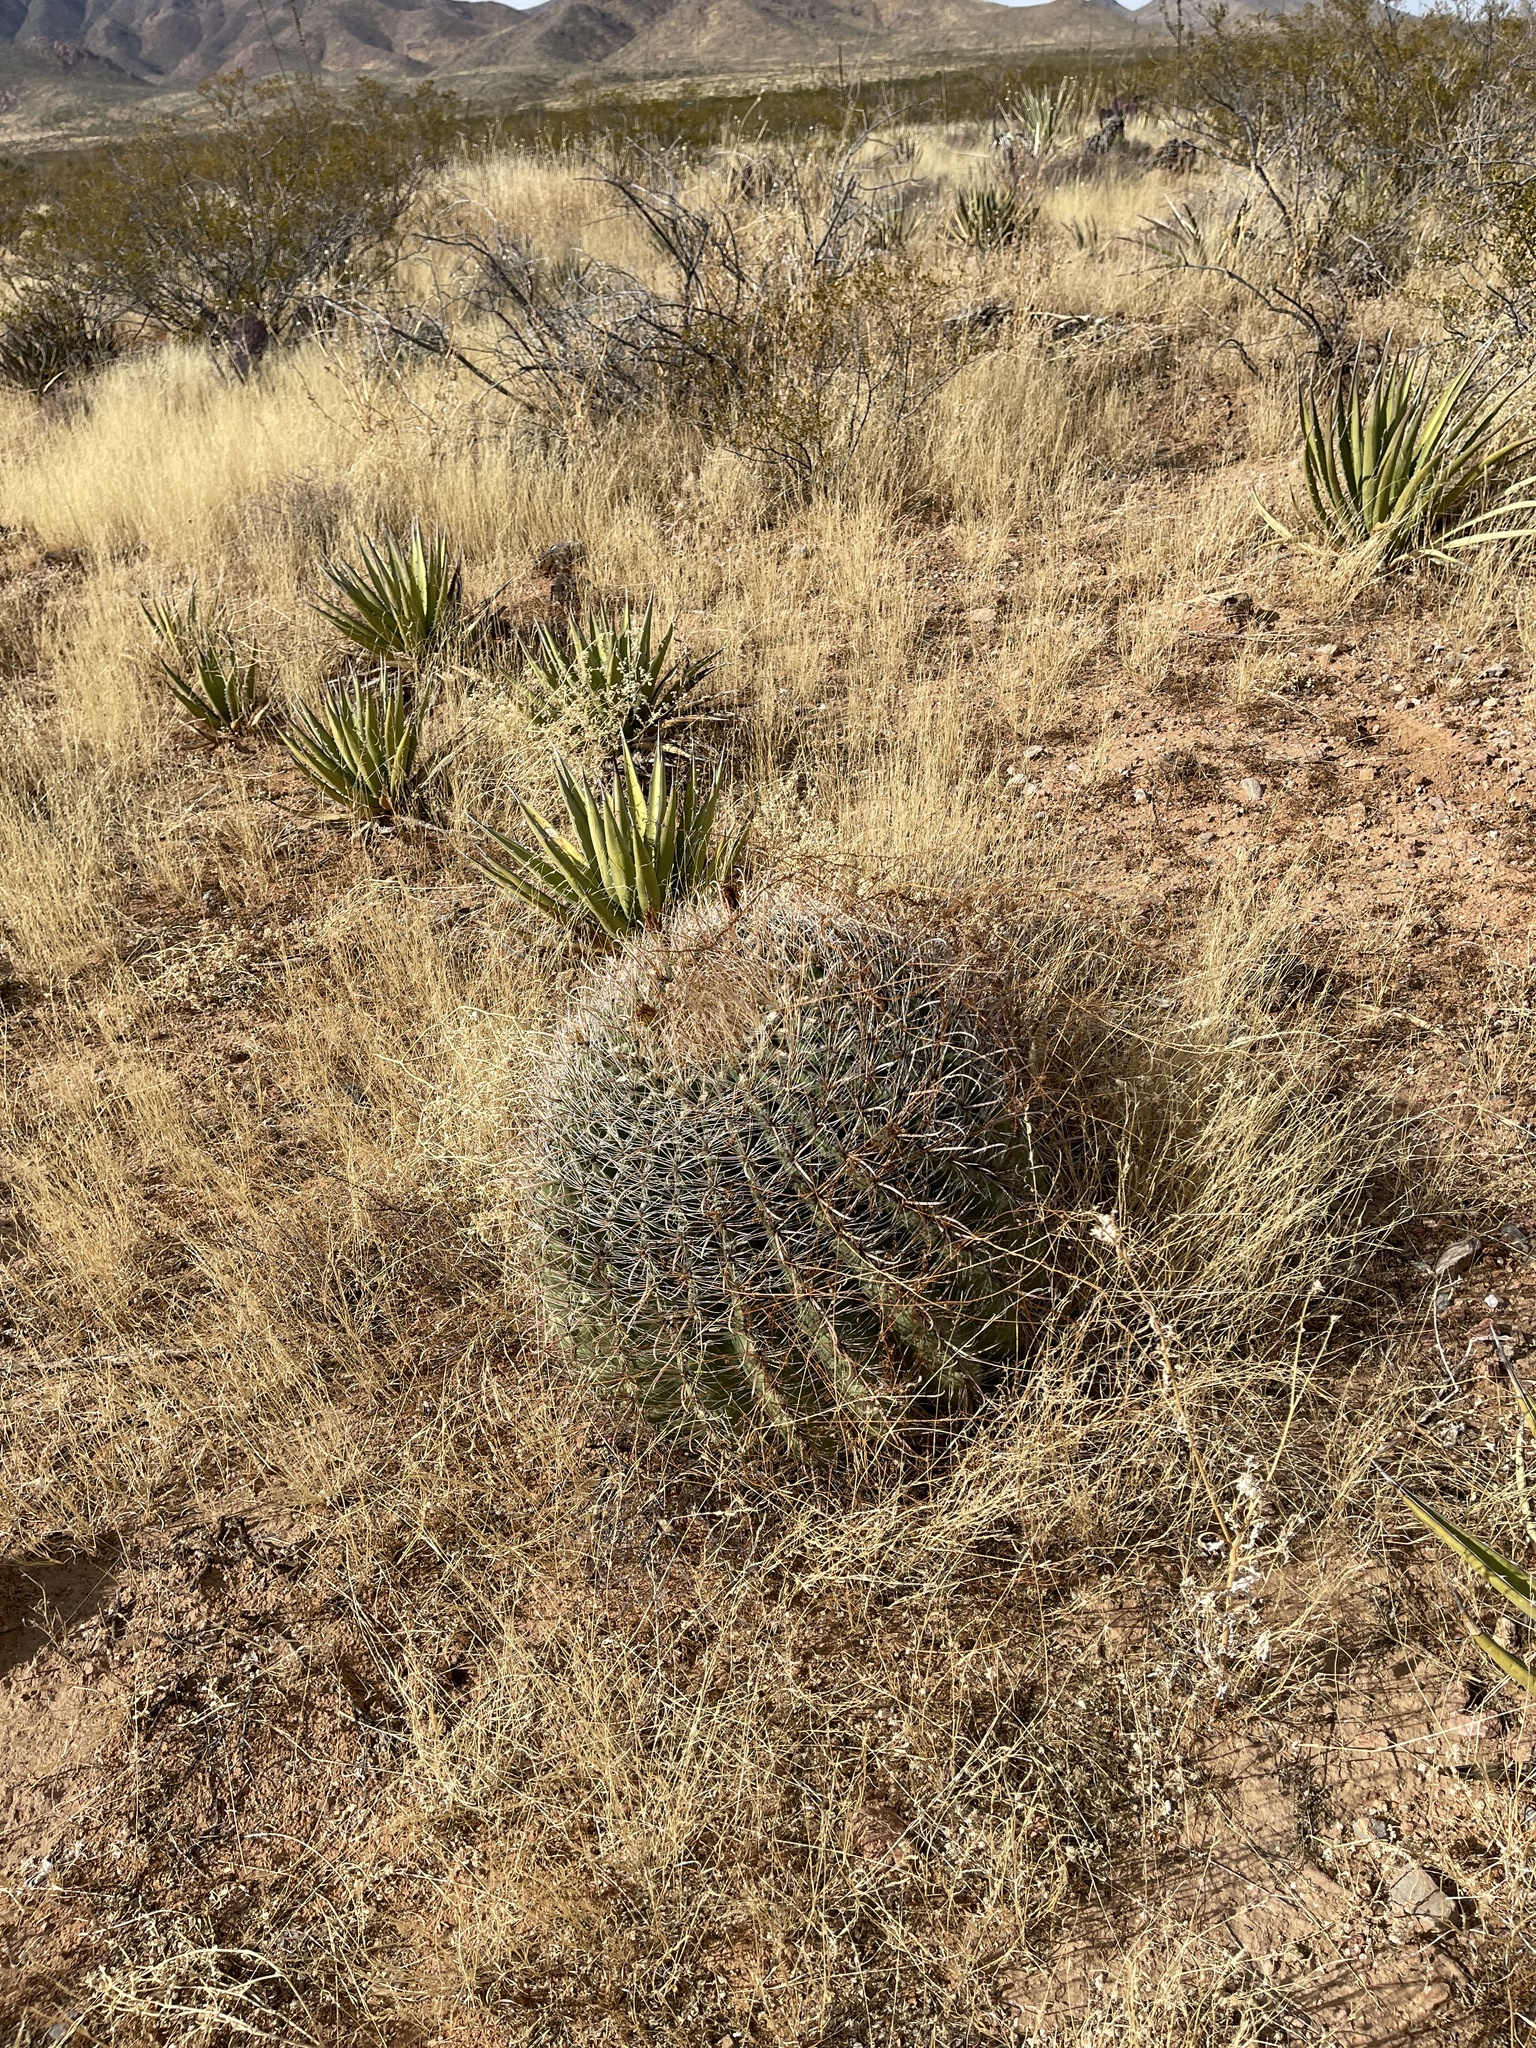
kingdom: Plantae
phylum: Tracheophyta
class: Magnoliopsida
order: Caryophyllales
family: Cactaceae
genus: Ferocactus
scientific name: Ferocactus wislizeni
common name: Candy barrel cactus
